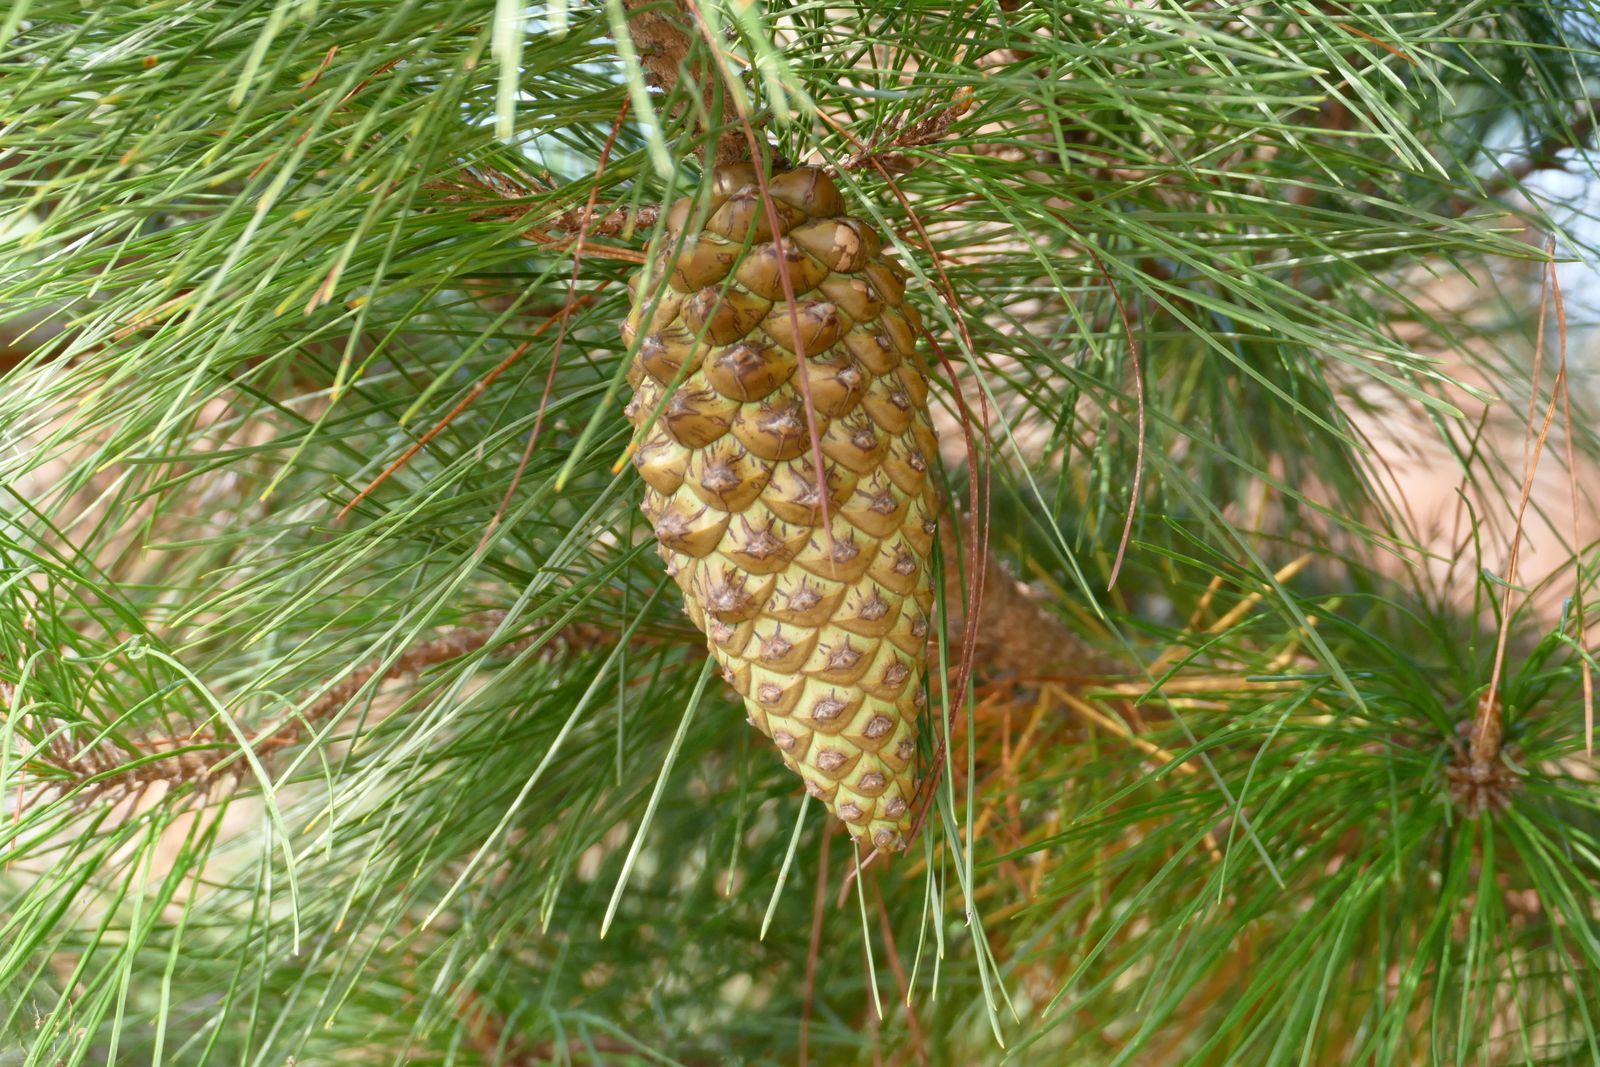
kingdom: Plantae
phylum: Tracheophyta
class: Pinopsida
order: Pinales
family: Pinaceae
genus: Pinus
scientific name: Pinus radiata
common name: Monterey pine
